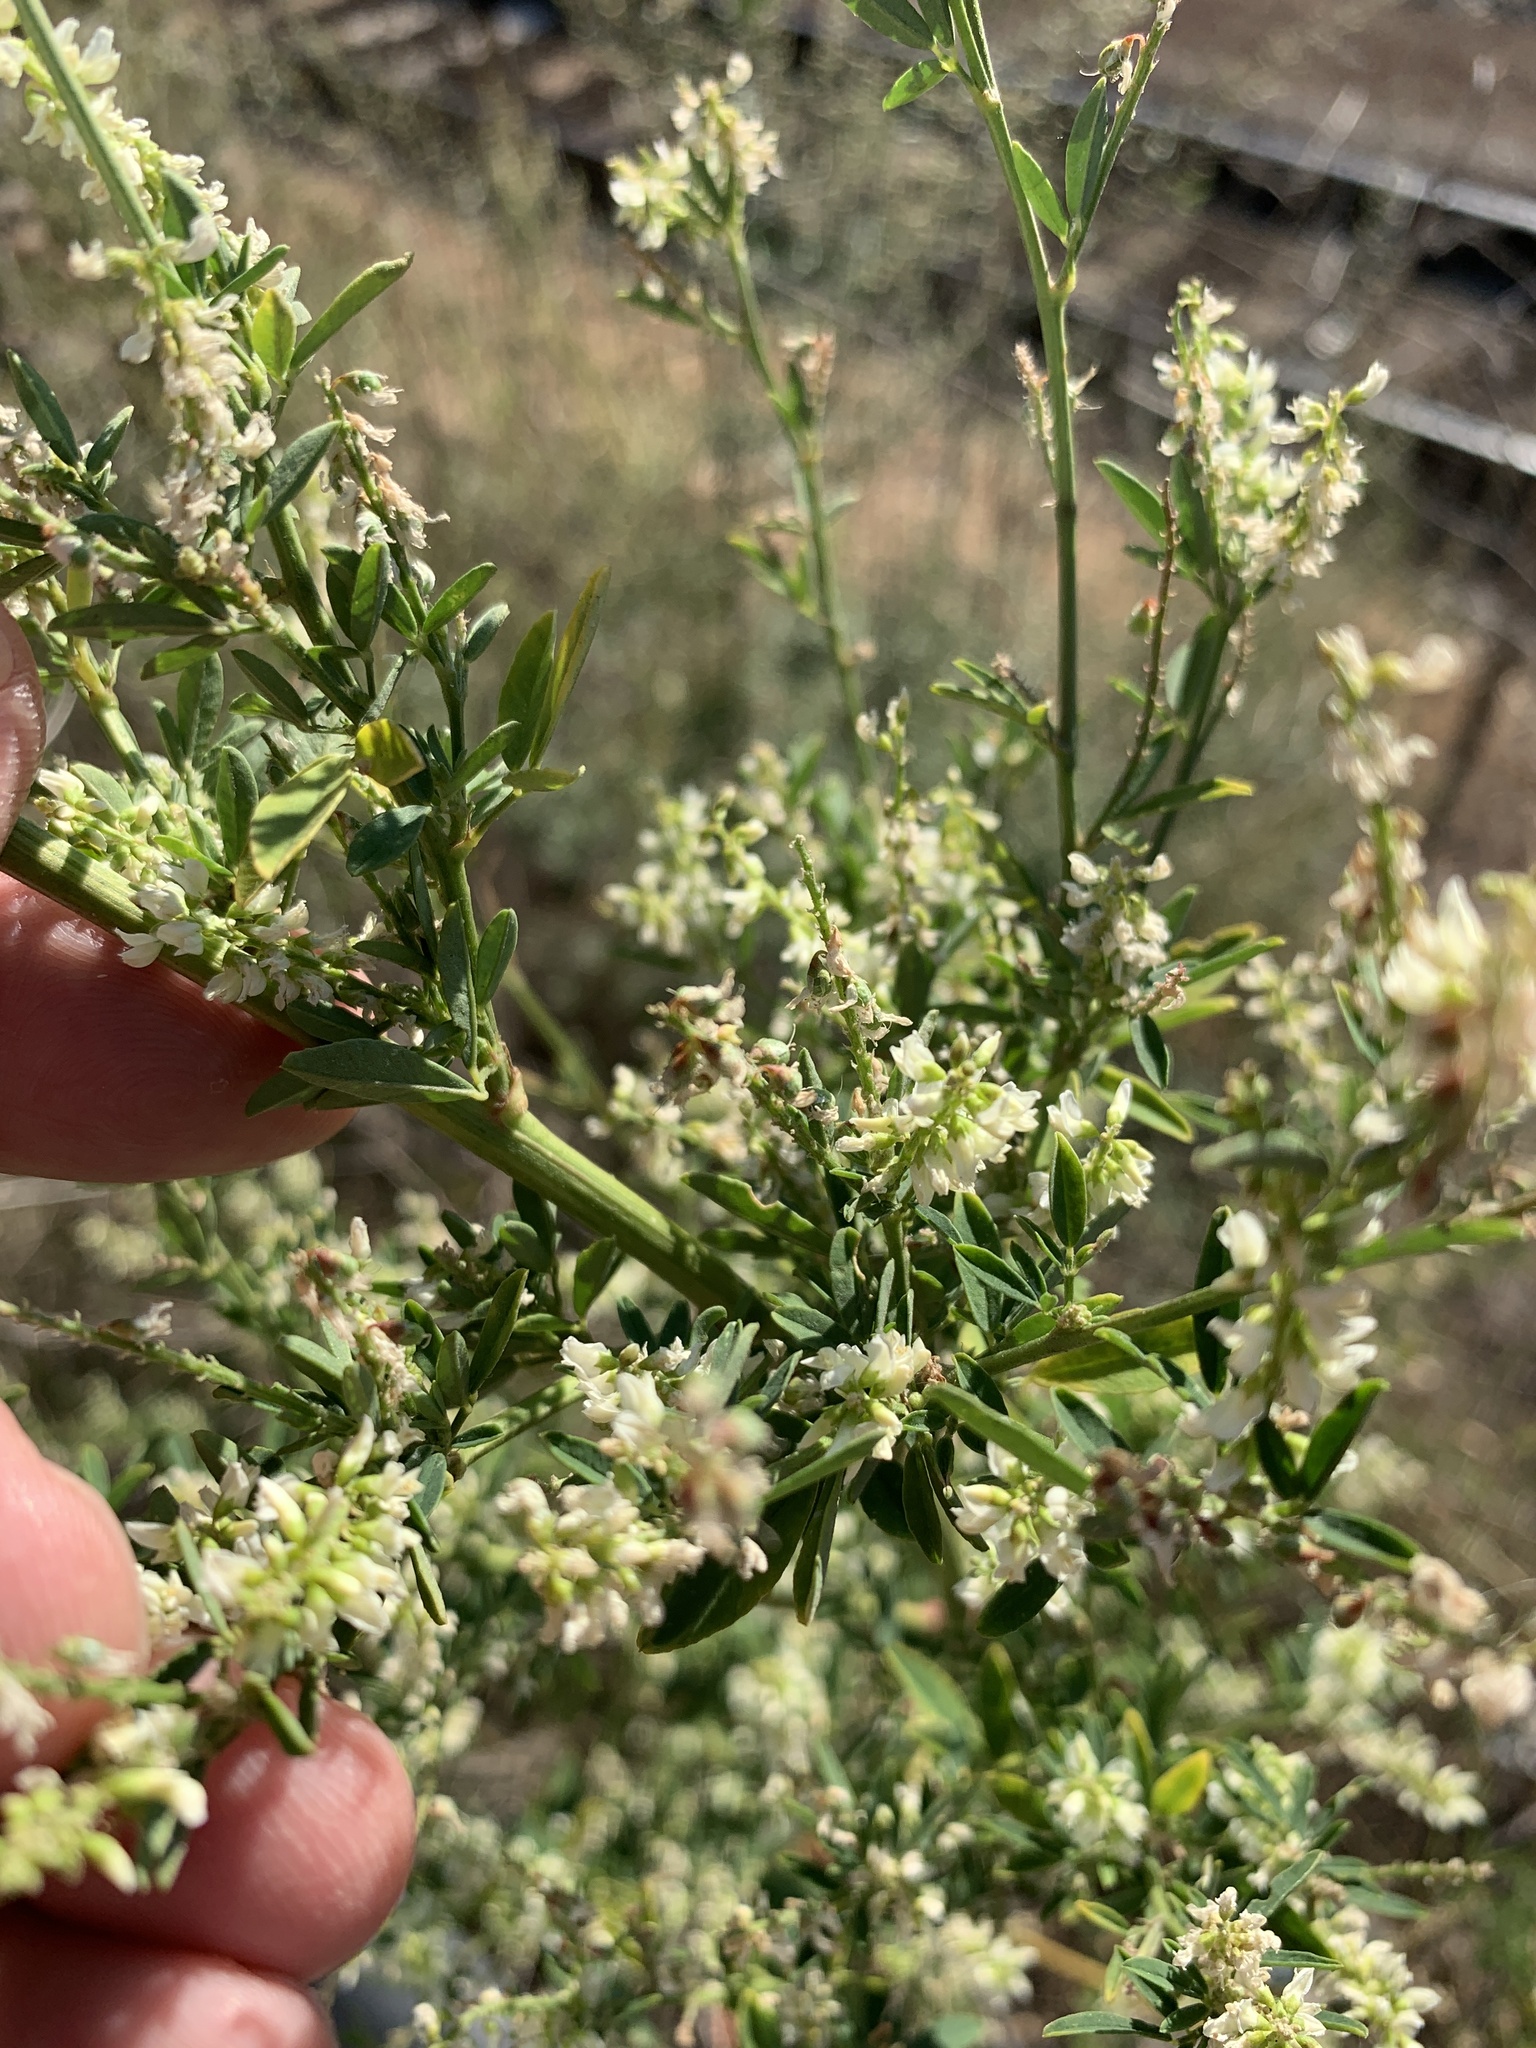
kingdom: Plantae
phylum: Tracheophyta
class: Magnoliopsida
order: Fabales
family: Fabaceae
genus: Melilotus
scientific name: Melilotus albus
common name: White melilot
